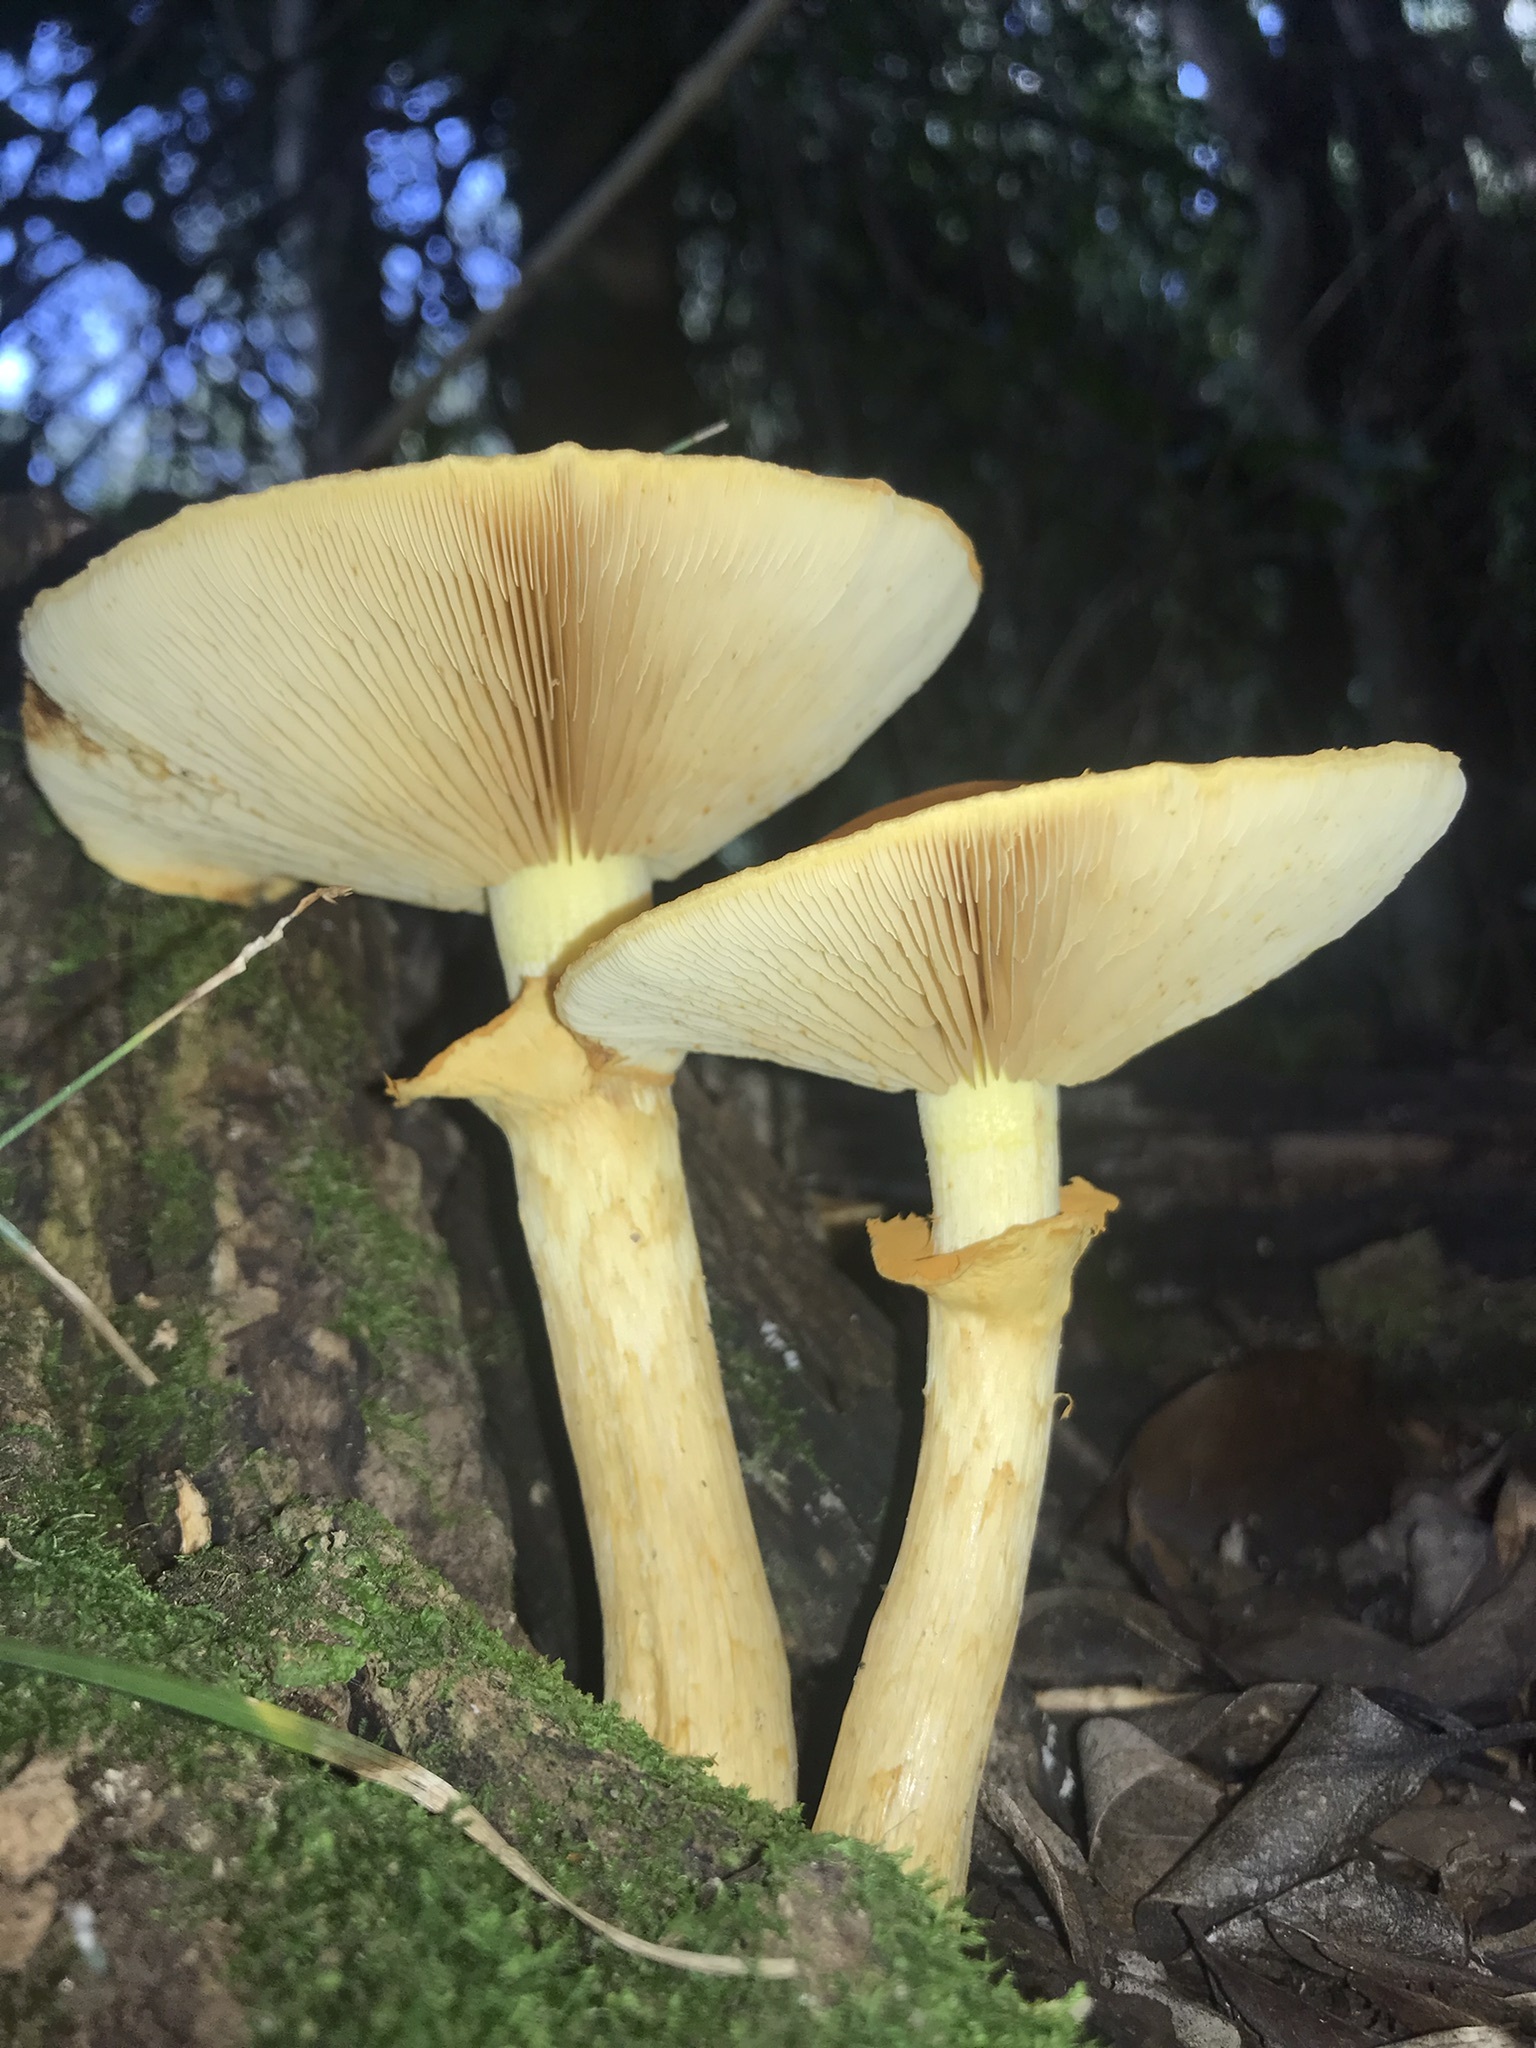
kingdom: Fungi
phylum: Basidiomycota
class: Agaricomycetes
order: Agaricales
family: Hymenogastraceae
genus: Gymnopilus
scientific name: Gymnopilus junonius
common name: Spectacular rustgill
